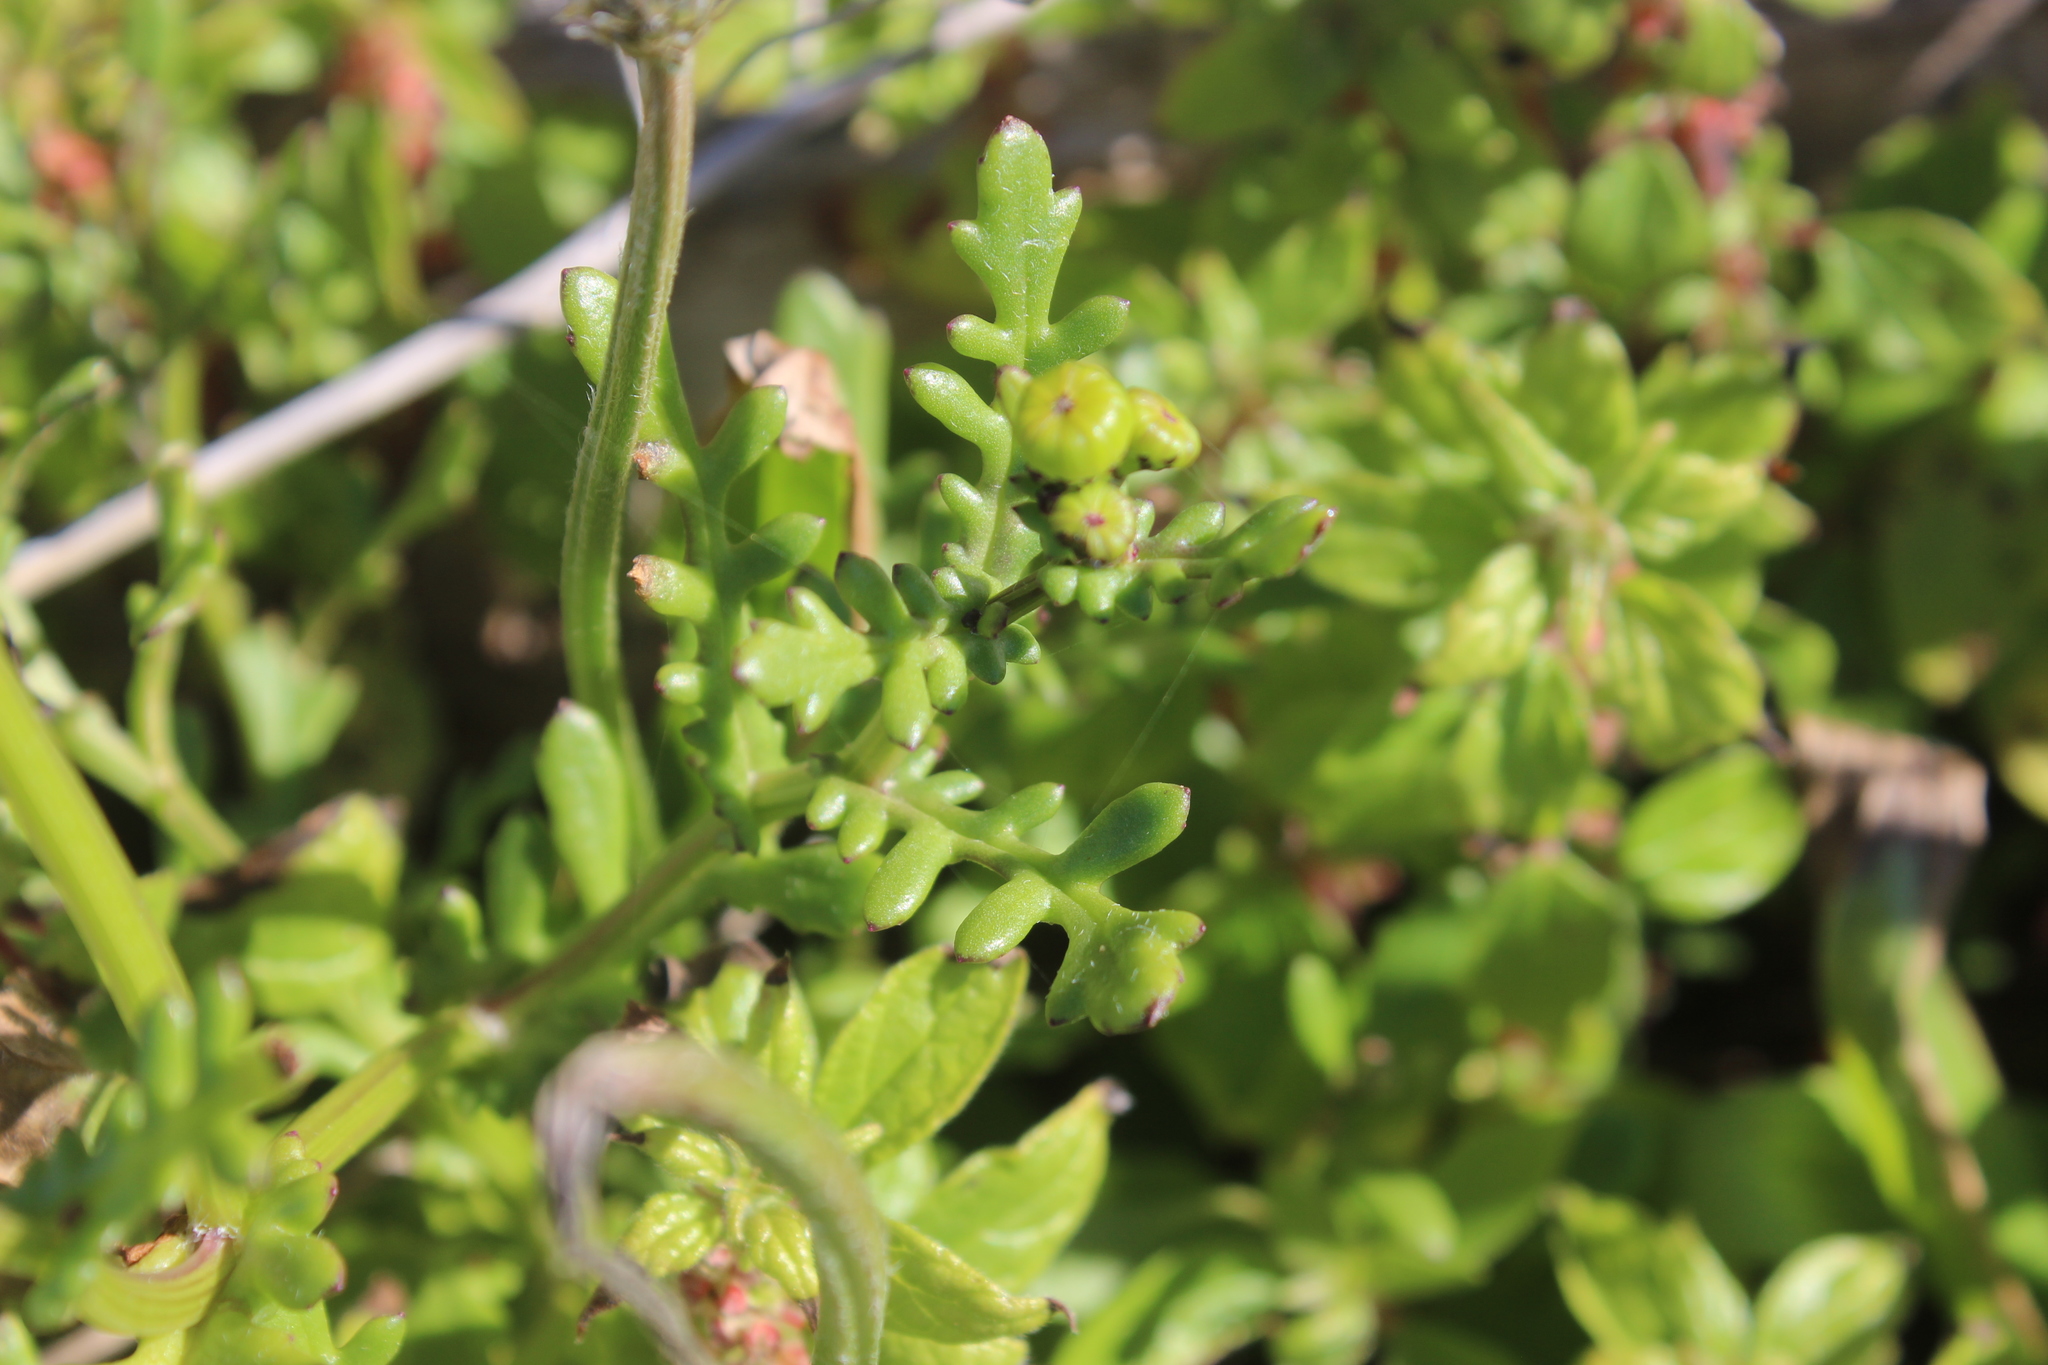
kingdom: Plantae
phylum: Tracheophyta
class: Magnoliopsida
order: Asterales
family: Asteraceae
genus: Senecio
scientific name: Senecio lautus
